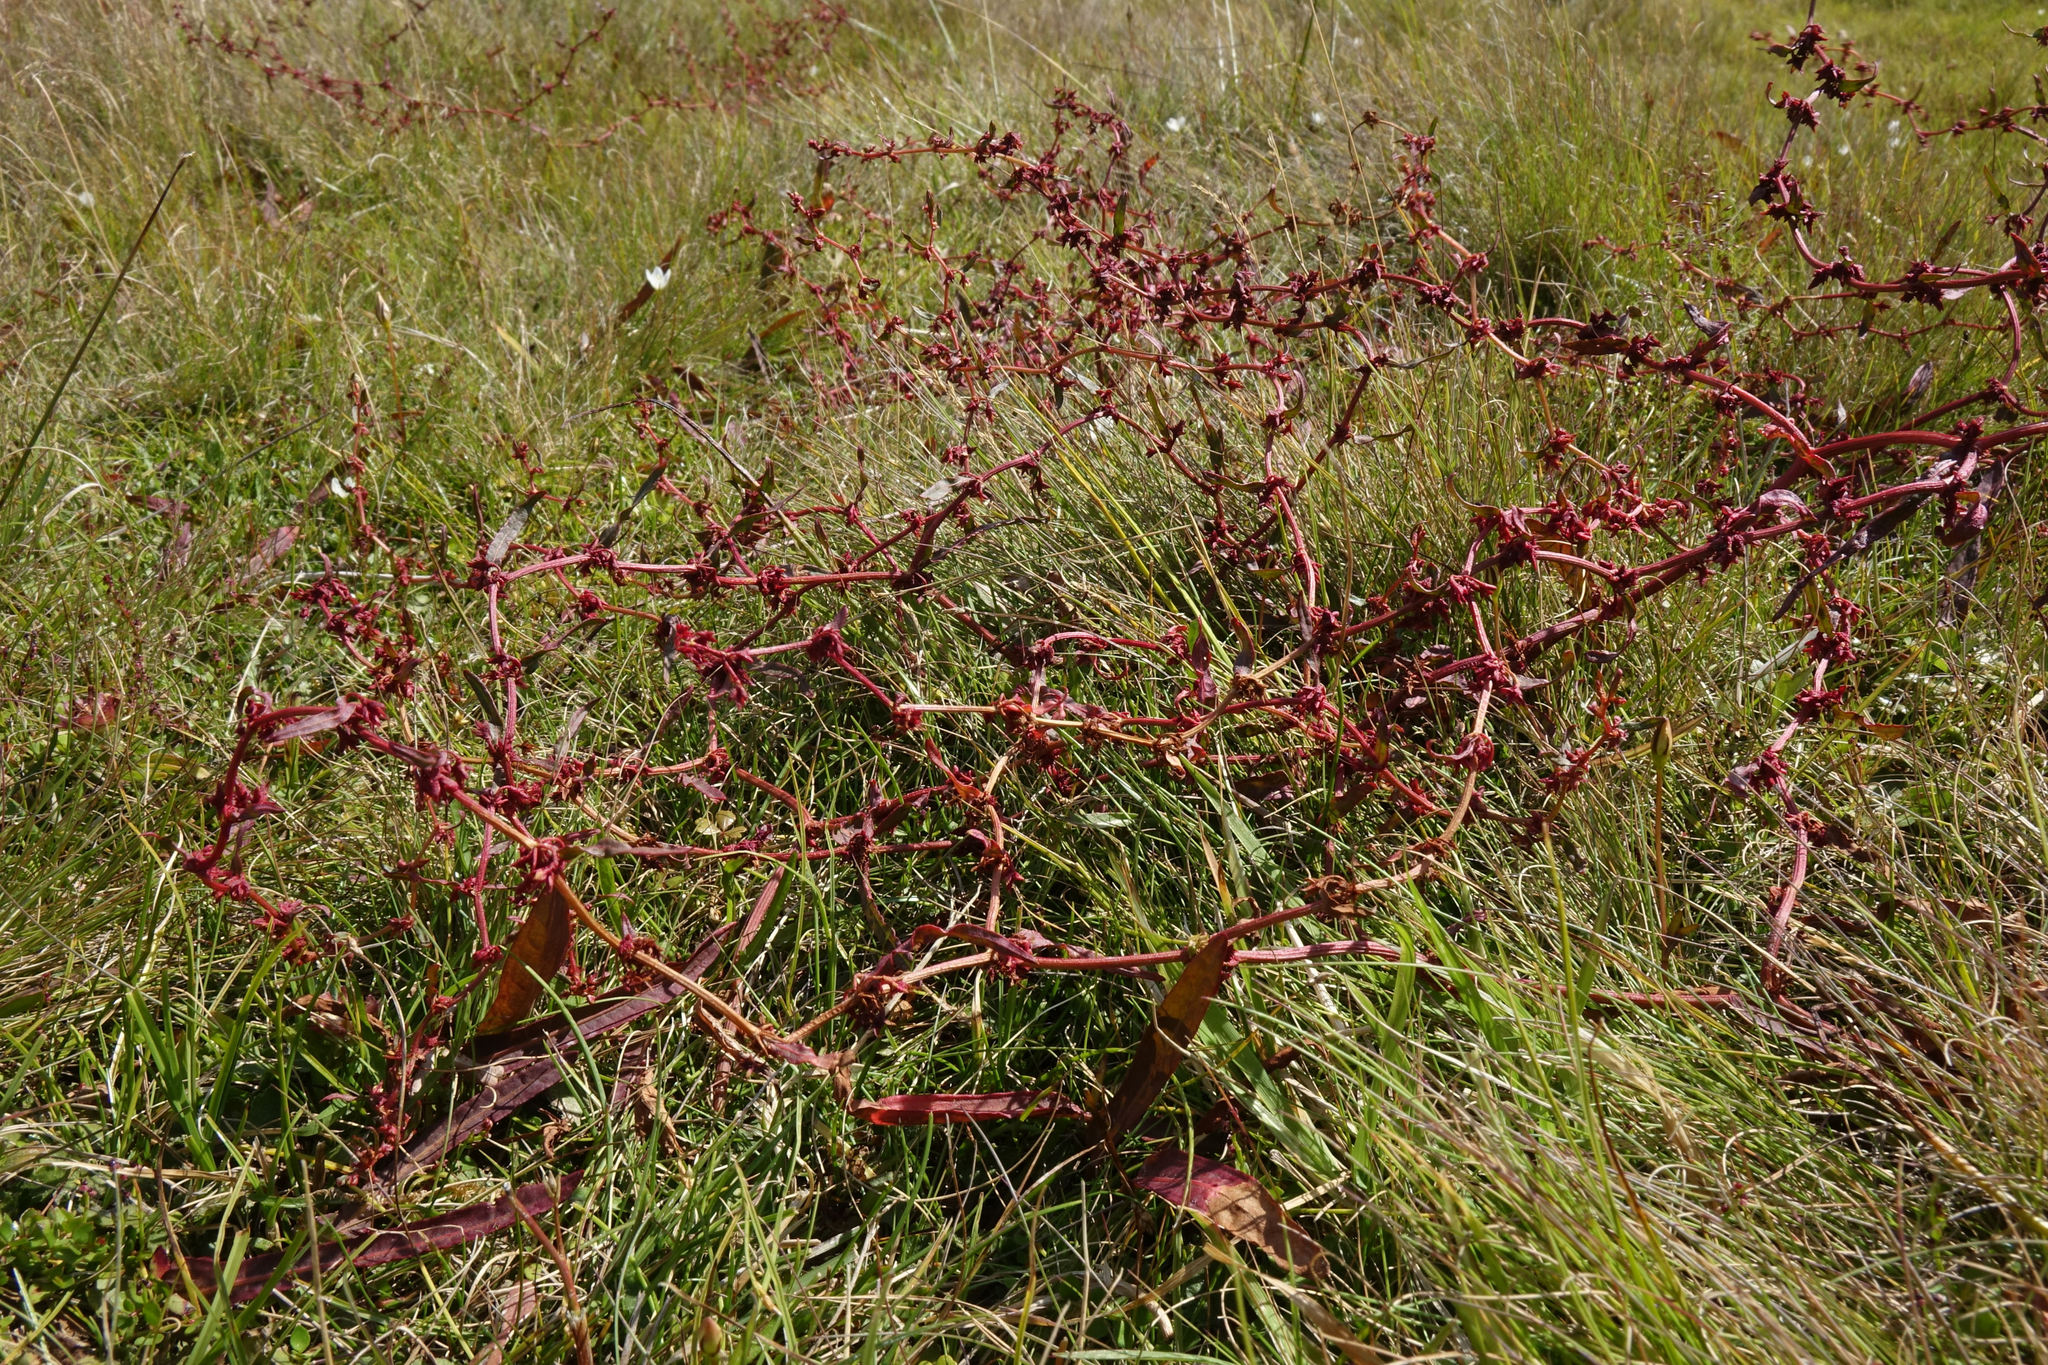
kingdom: Plantae
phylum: Tracheophyta
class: Magnoliopsida
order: Caryophyllales
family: Polygonaceae
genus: Rumex
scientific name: Rumex flexuosus
